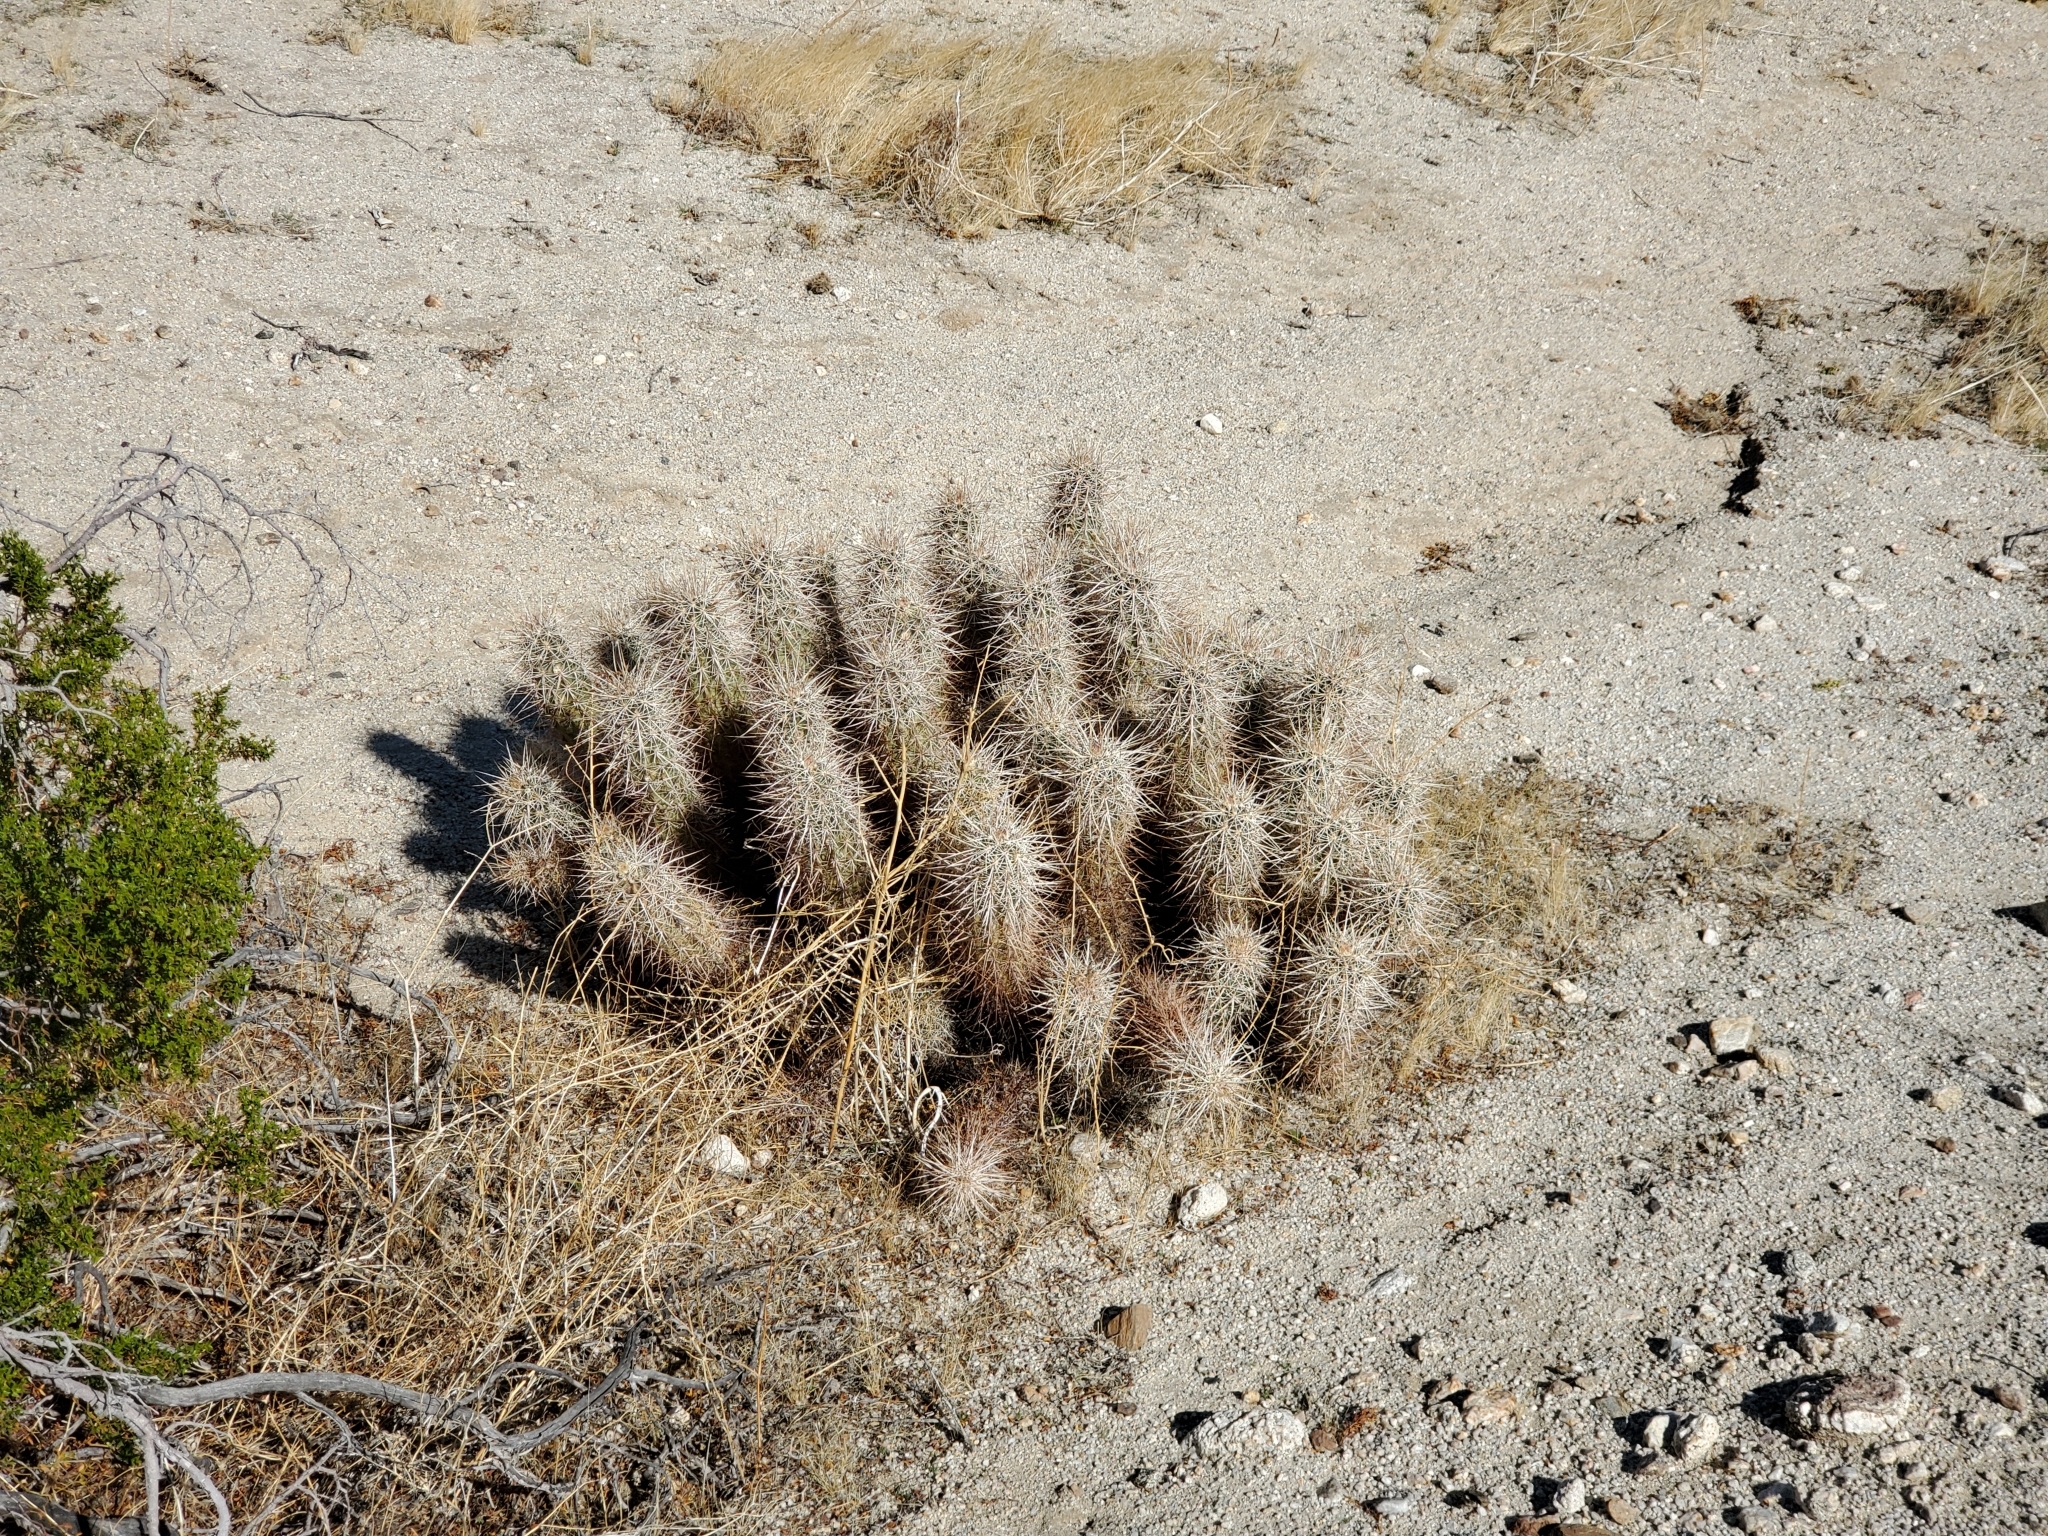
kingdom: Plantae
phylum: Tracheophyta
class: Magnoliopsida
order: Caryophyllales
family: Cactaceae
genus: Echinocereus
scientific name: Echinocereus engelmannii
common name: Engelmann's hedgehog cactus
